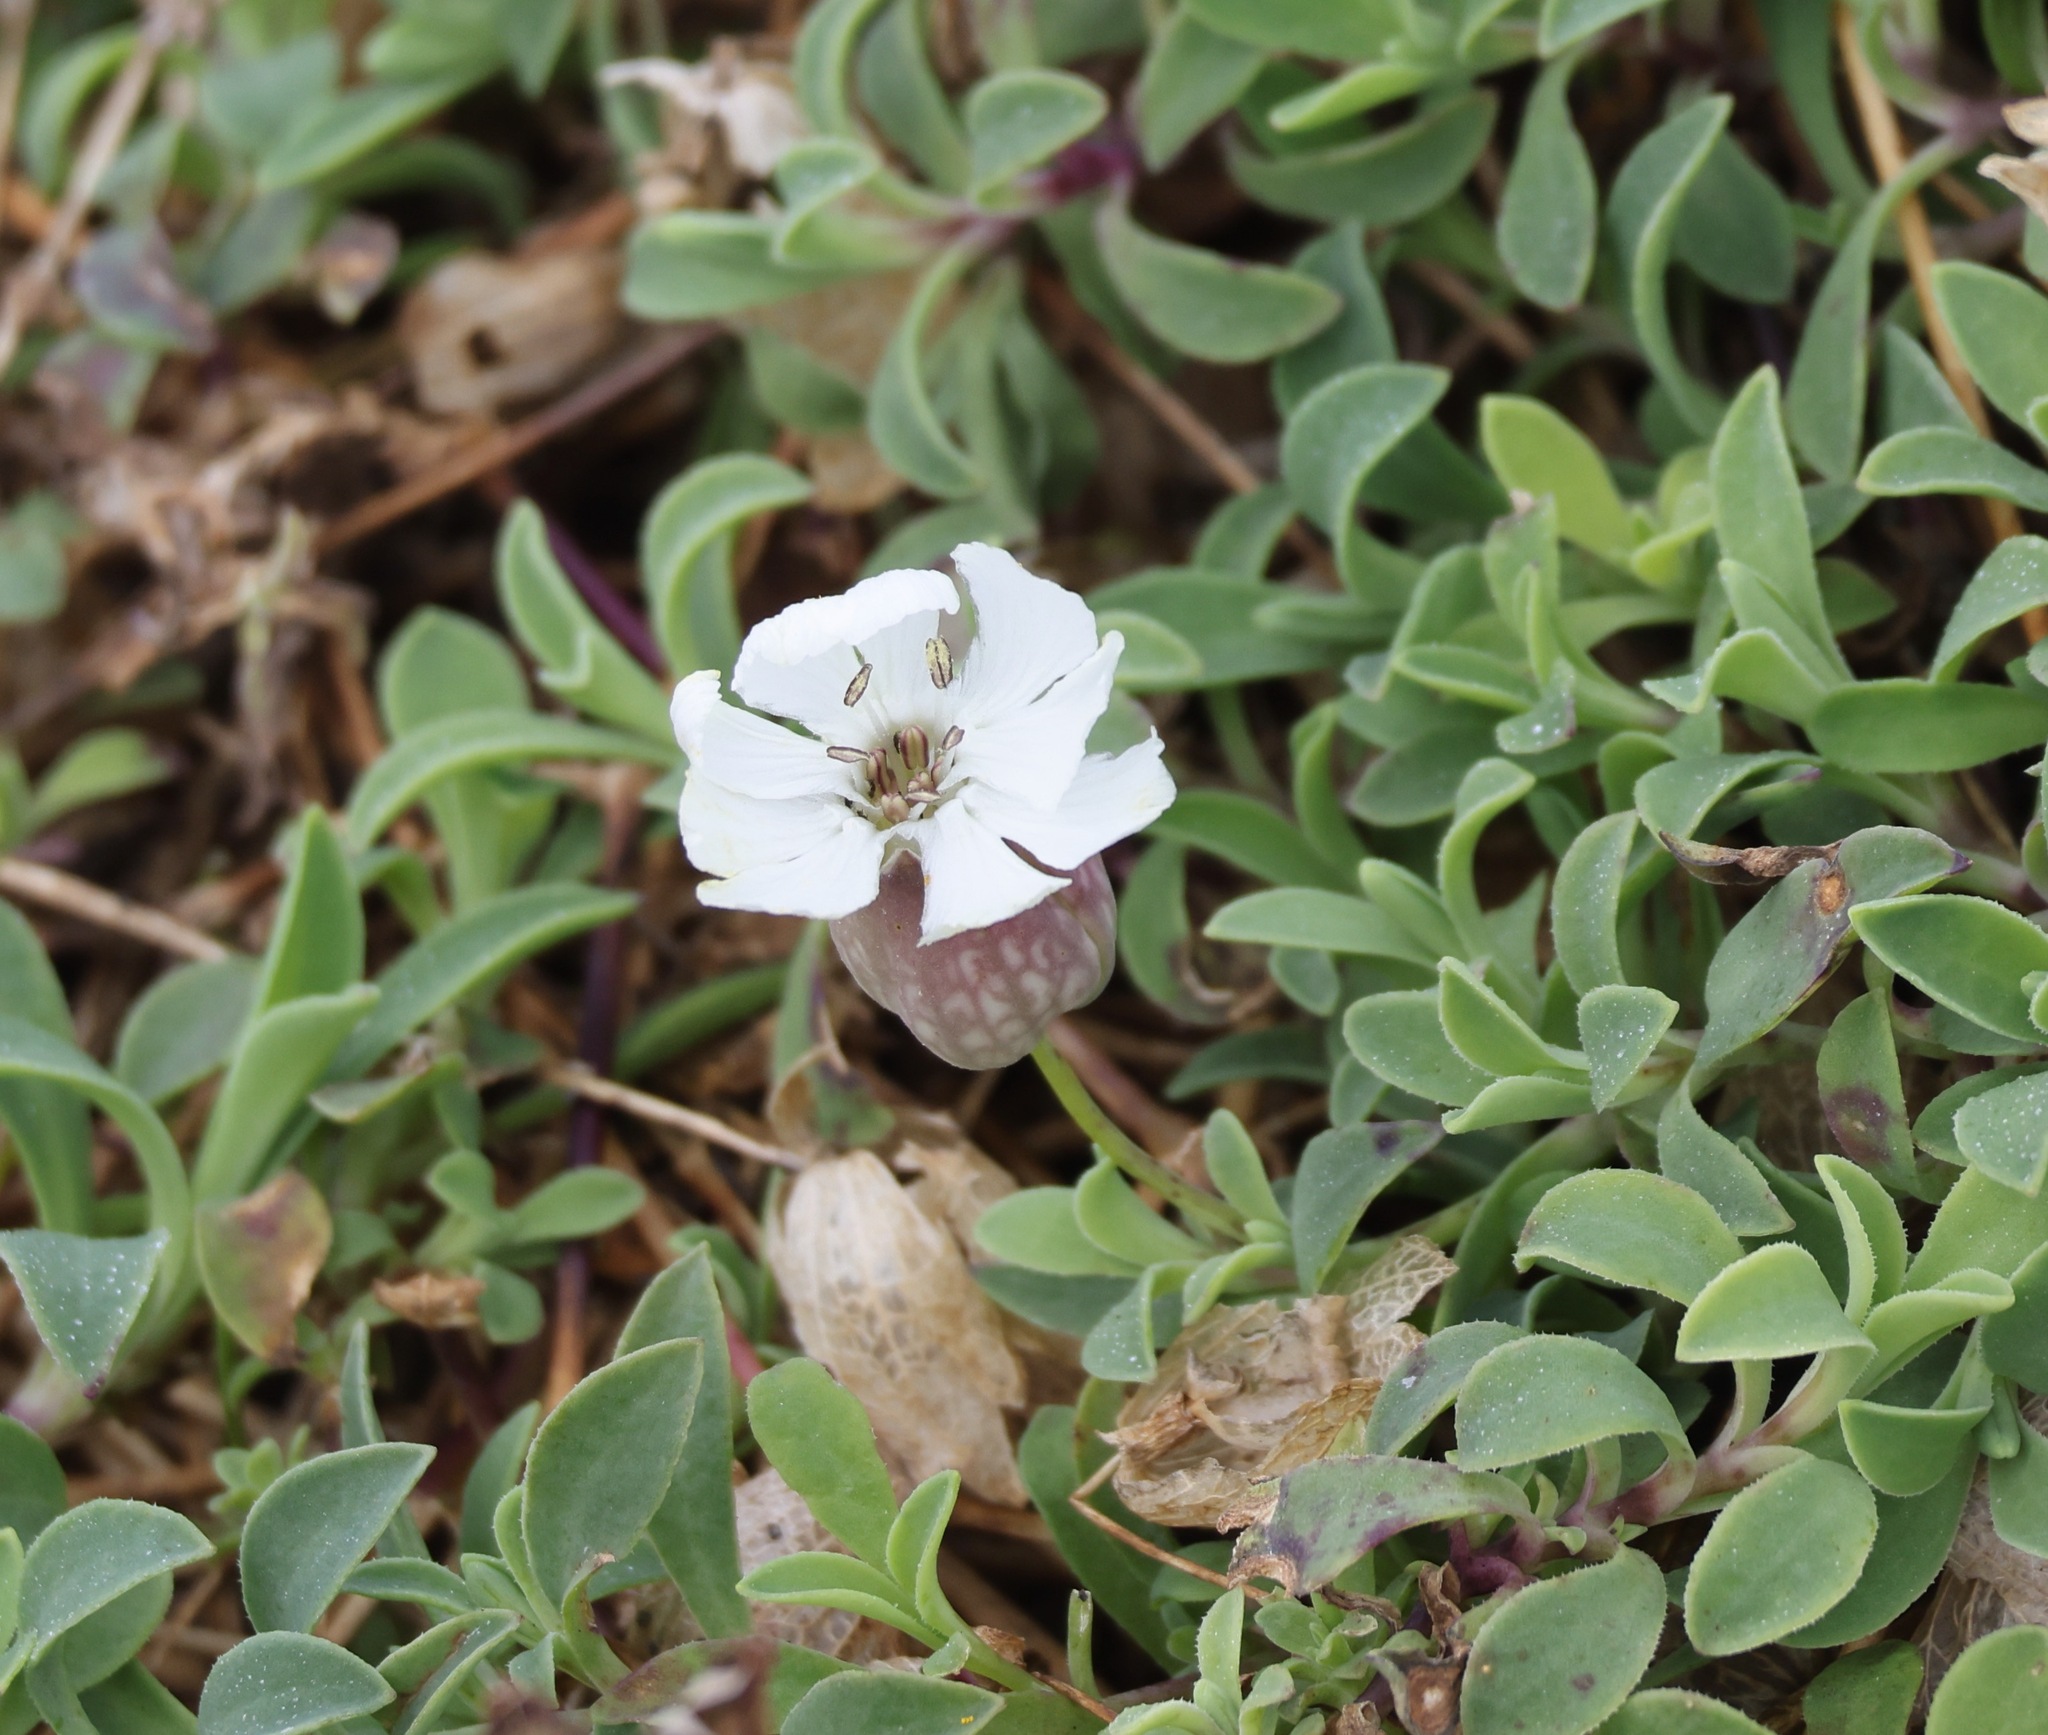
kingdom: Plantae
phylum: Tracheophyta
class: Magnoliopsida
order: Caryophyllales
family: Caryophyllaceae
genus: Silene
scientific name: Silene uniflora
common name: Sea campion
